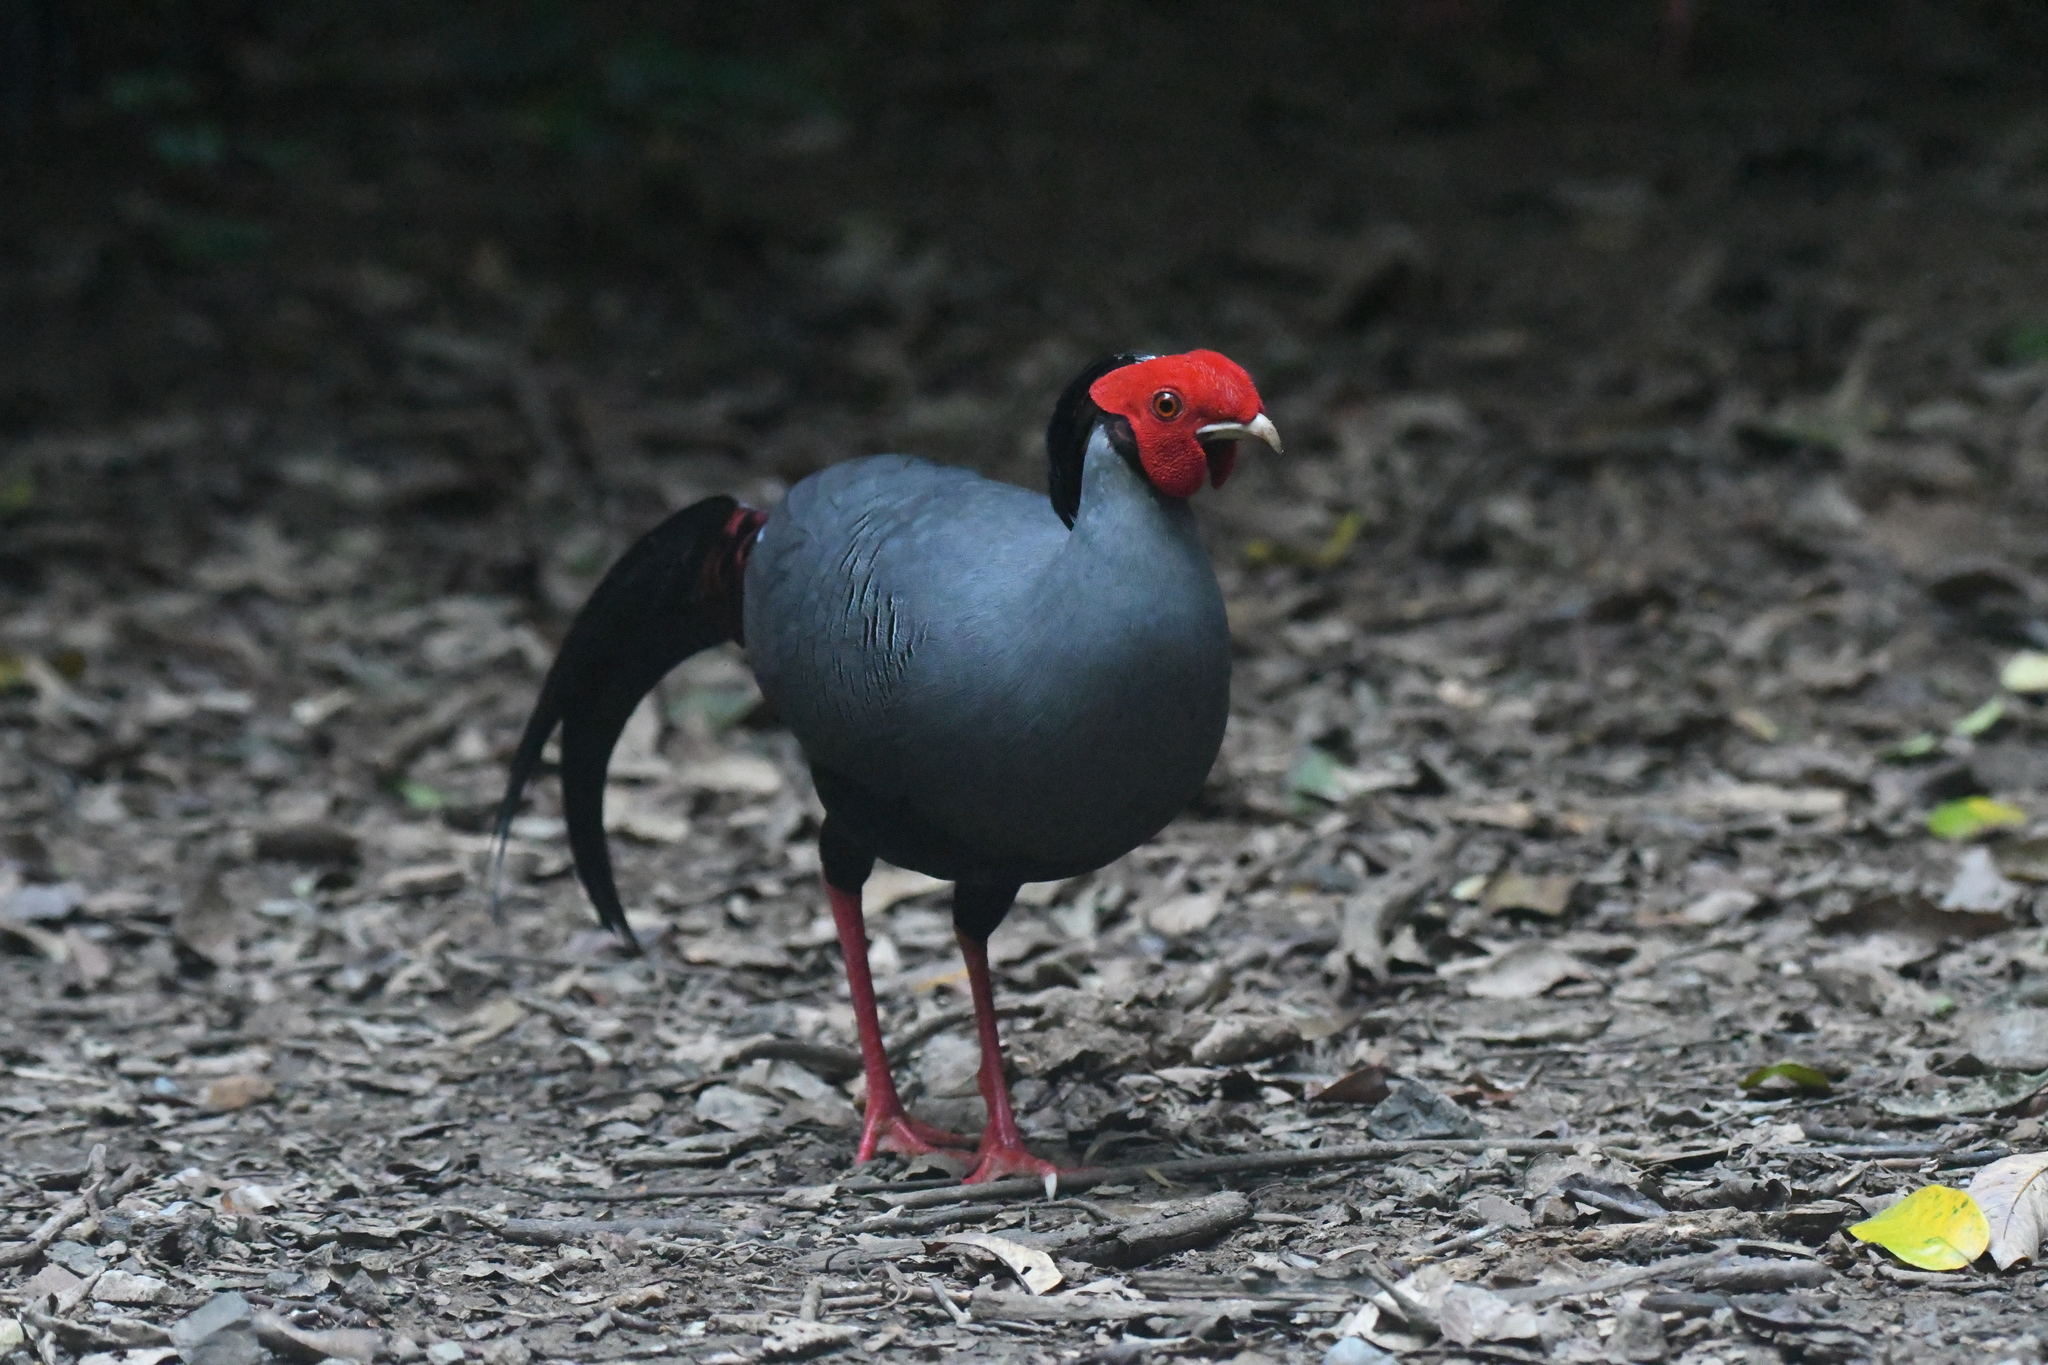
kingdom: Animalia
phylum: Chordata
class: Aves
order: Galliformes
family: Phasianidae
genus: Lophura
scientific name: Lophura diardi
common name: Siamese fireback
